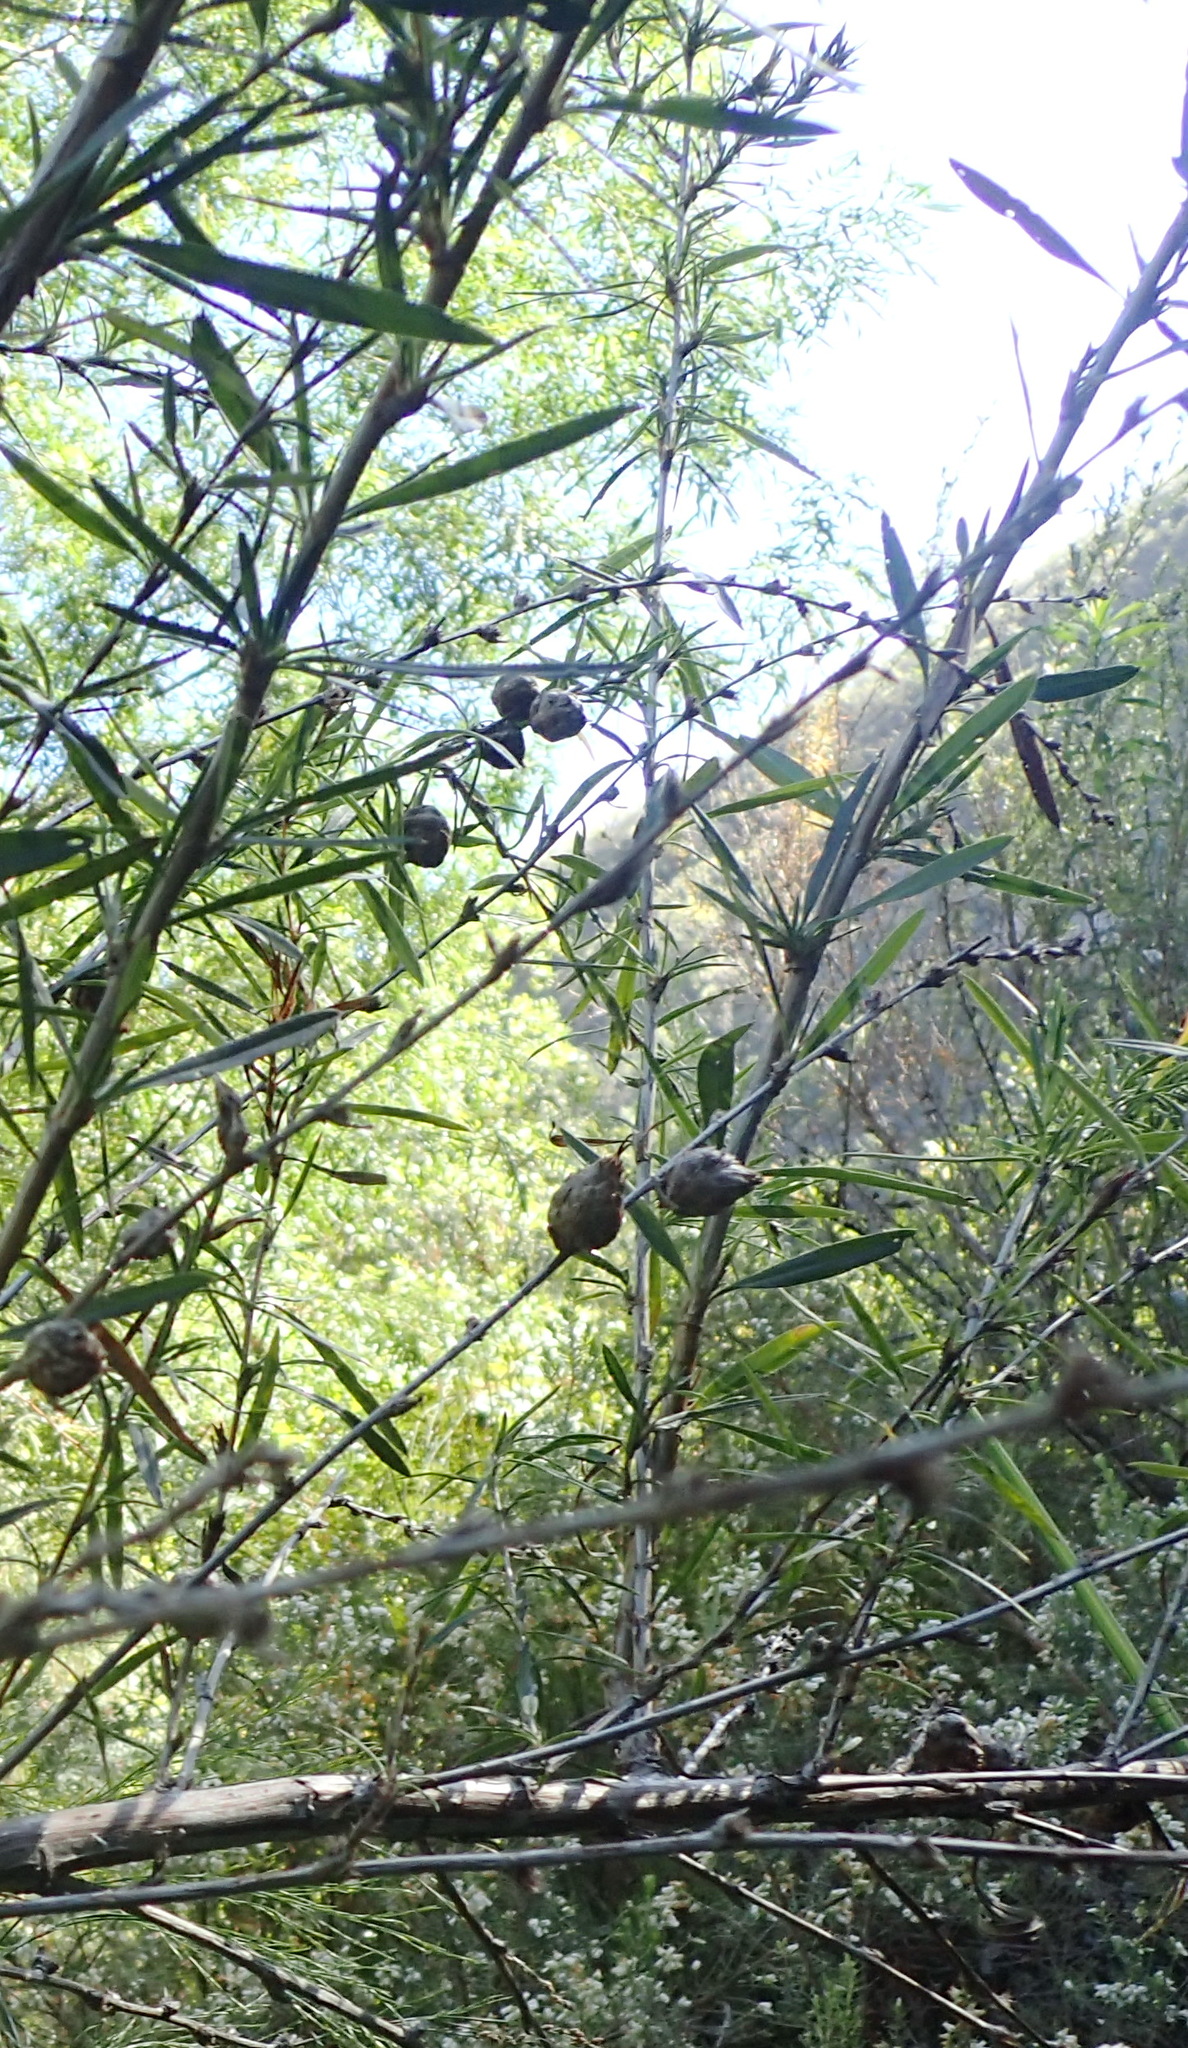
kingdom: Plantae
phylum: Tracheophyta
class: Magnoliopsida
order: Rosales
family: Rosaceae
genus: Cliffortia
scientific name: Cliffortia strobilifera
